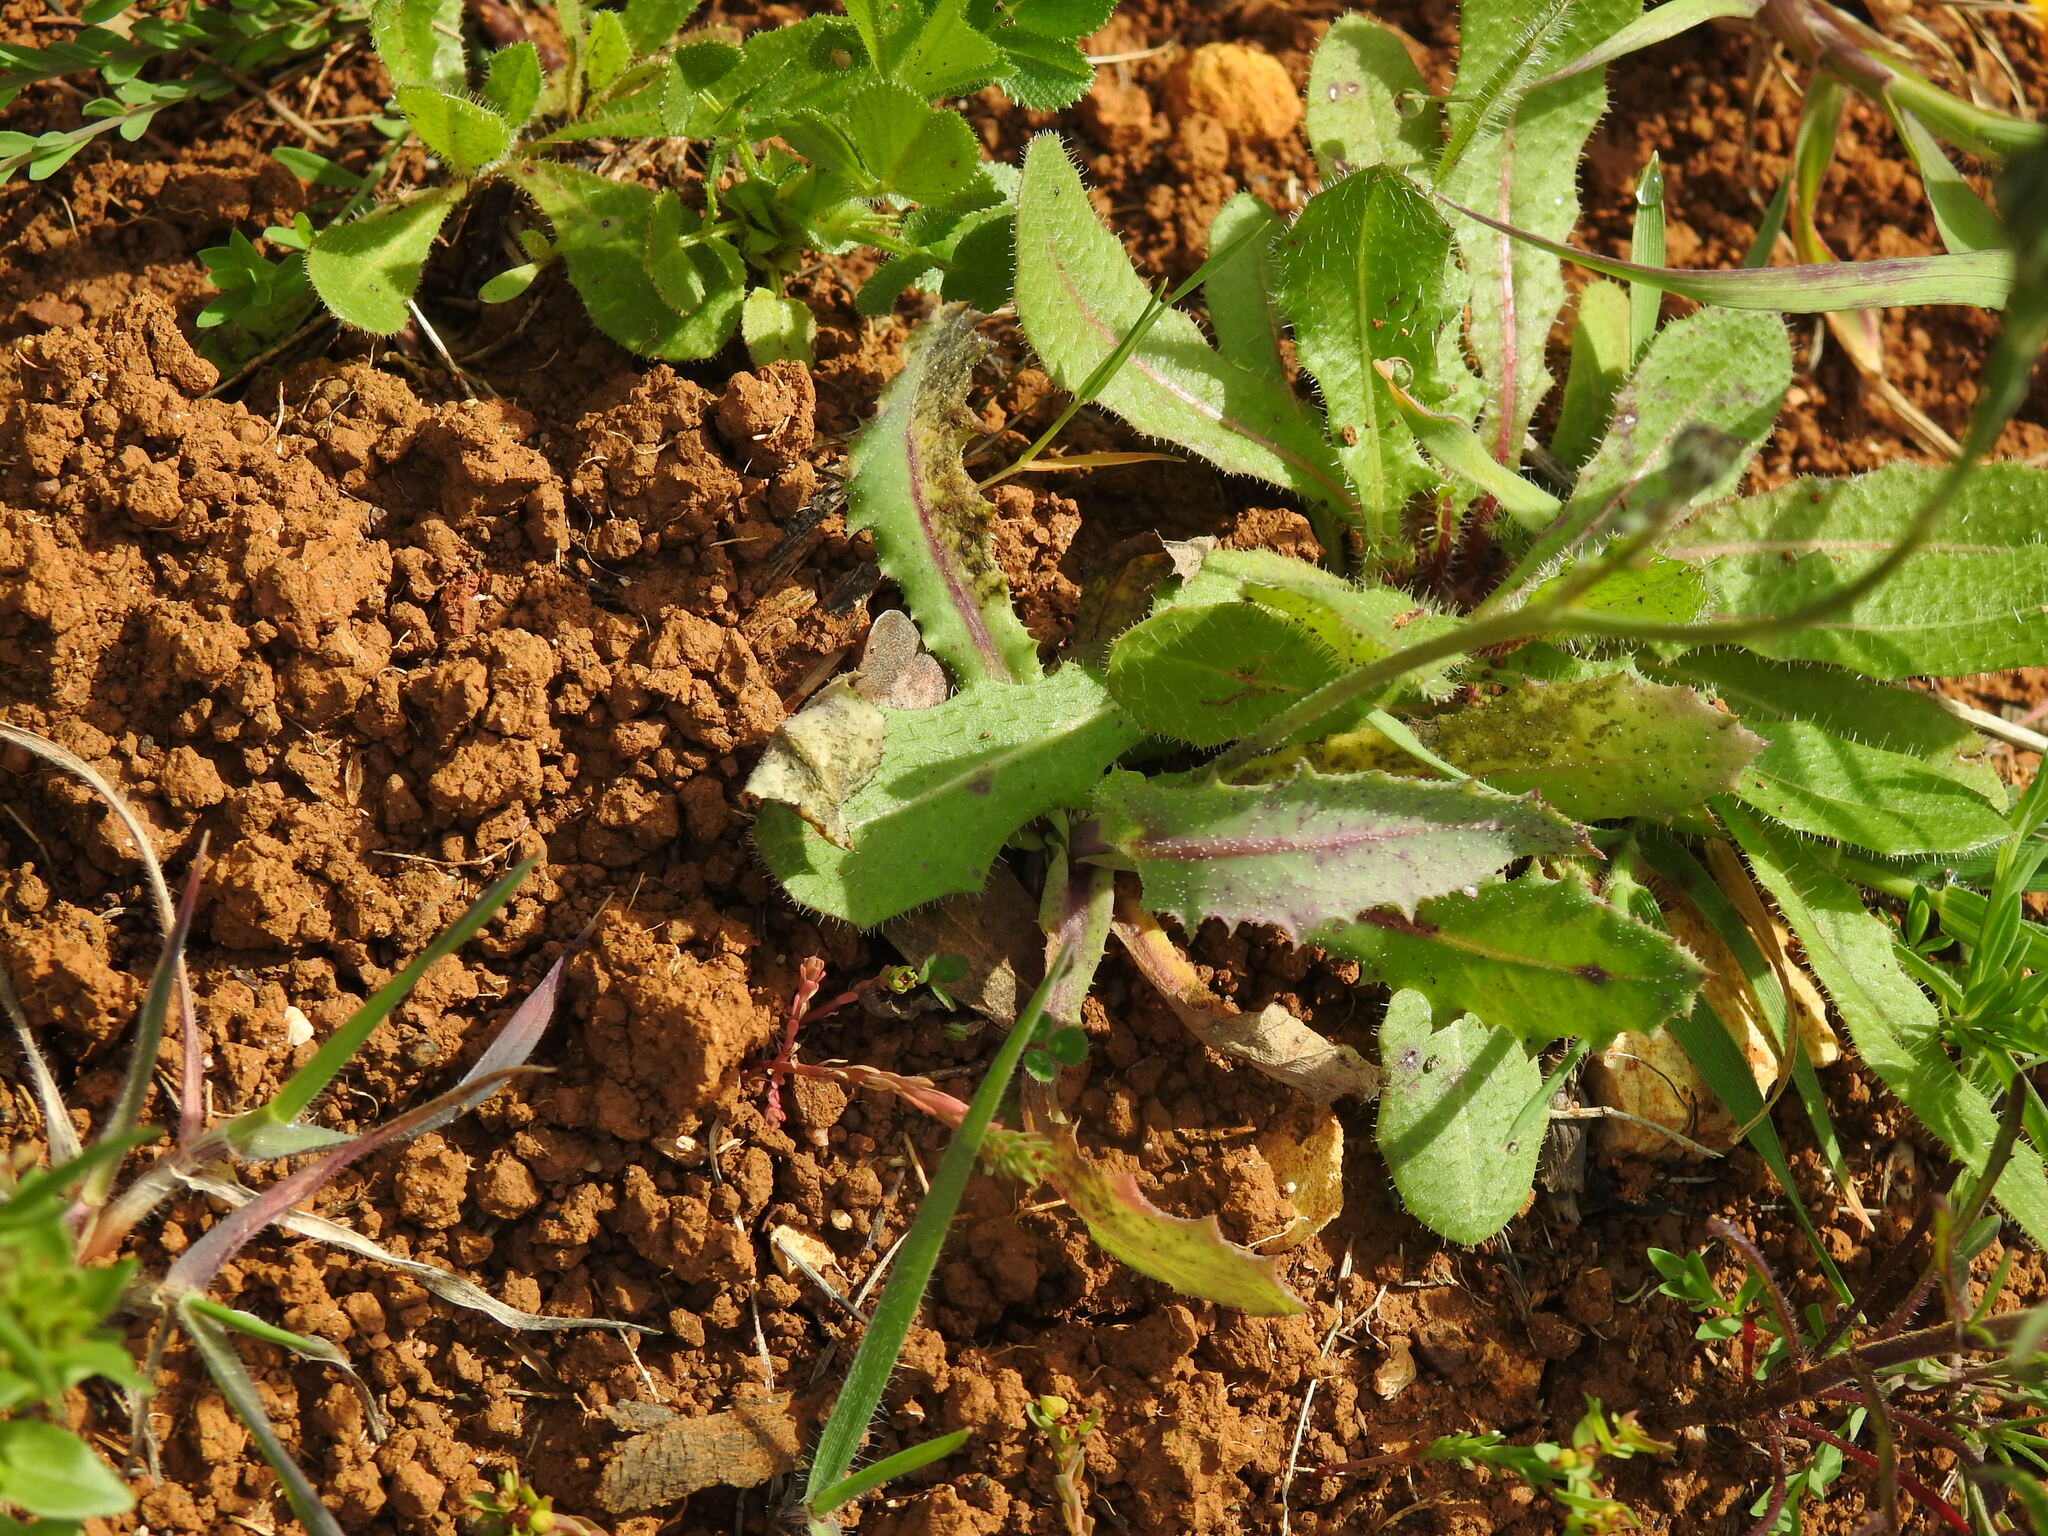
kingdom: Plantae
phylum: Tracheophyta
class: Magnoliopsida
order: Asterales
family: Asteraceae
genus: Reichardia
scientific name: Reichardia intermedia
